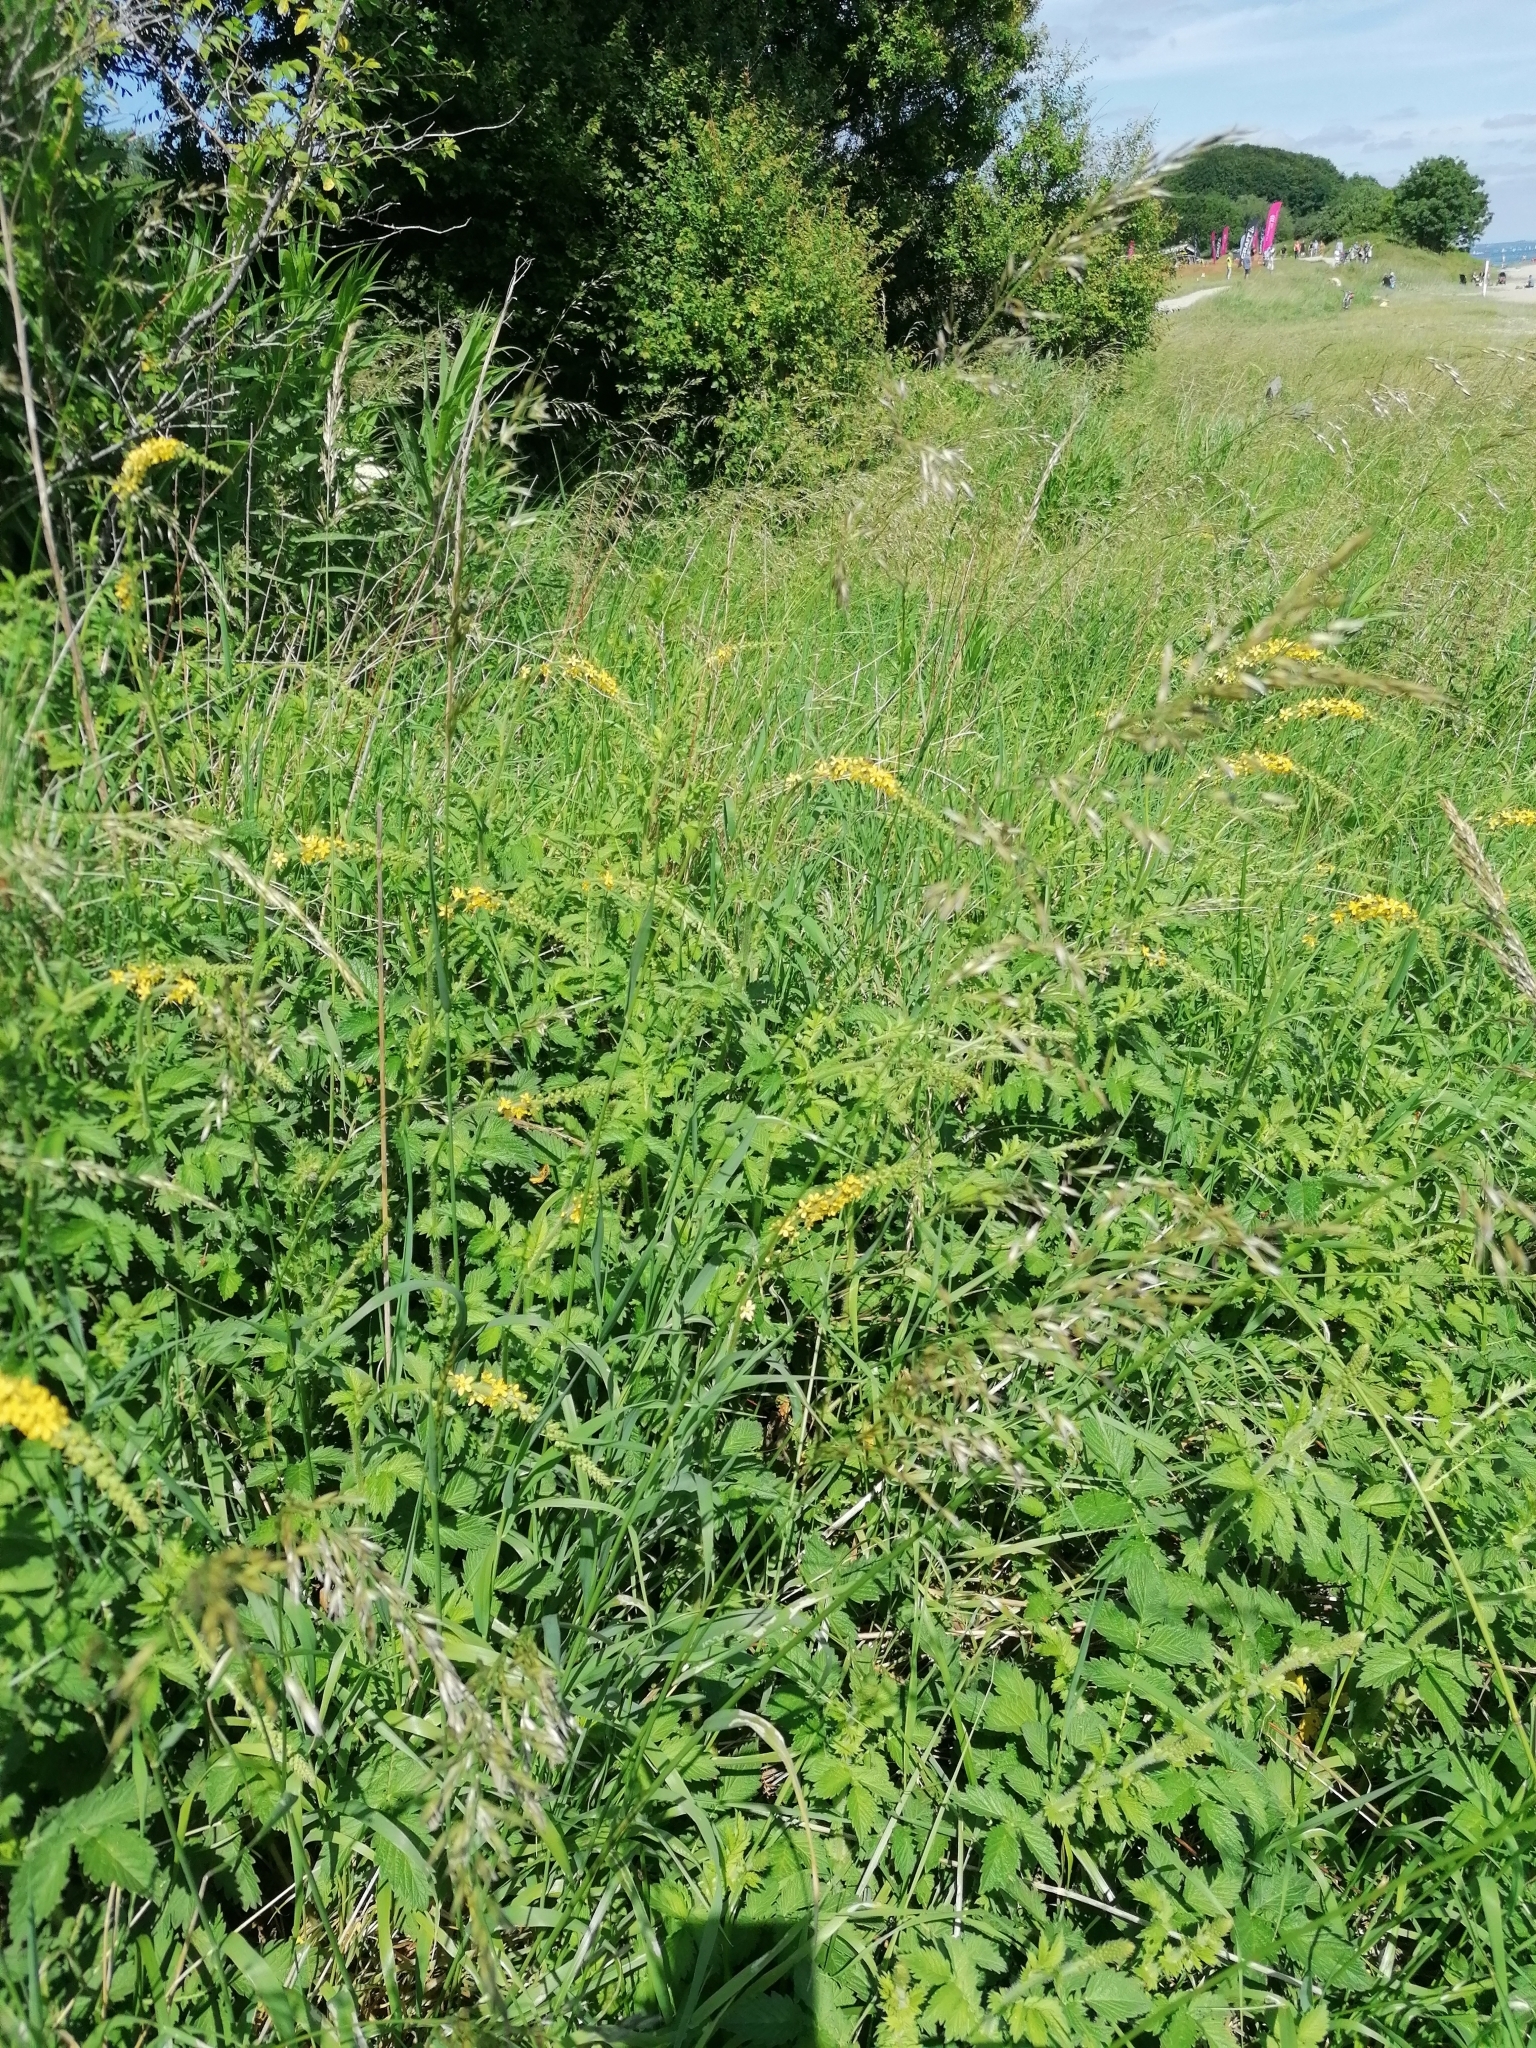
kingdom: Plantae
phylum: Tracheophyta
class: Magnoliopsida
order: Rosales
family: Rosaceae
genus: Agrimonia
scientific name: Agrimonia eupatoria
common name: Agrimony
